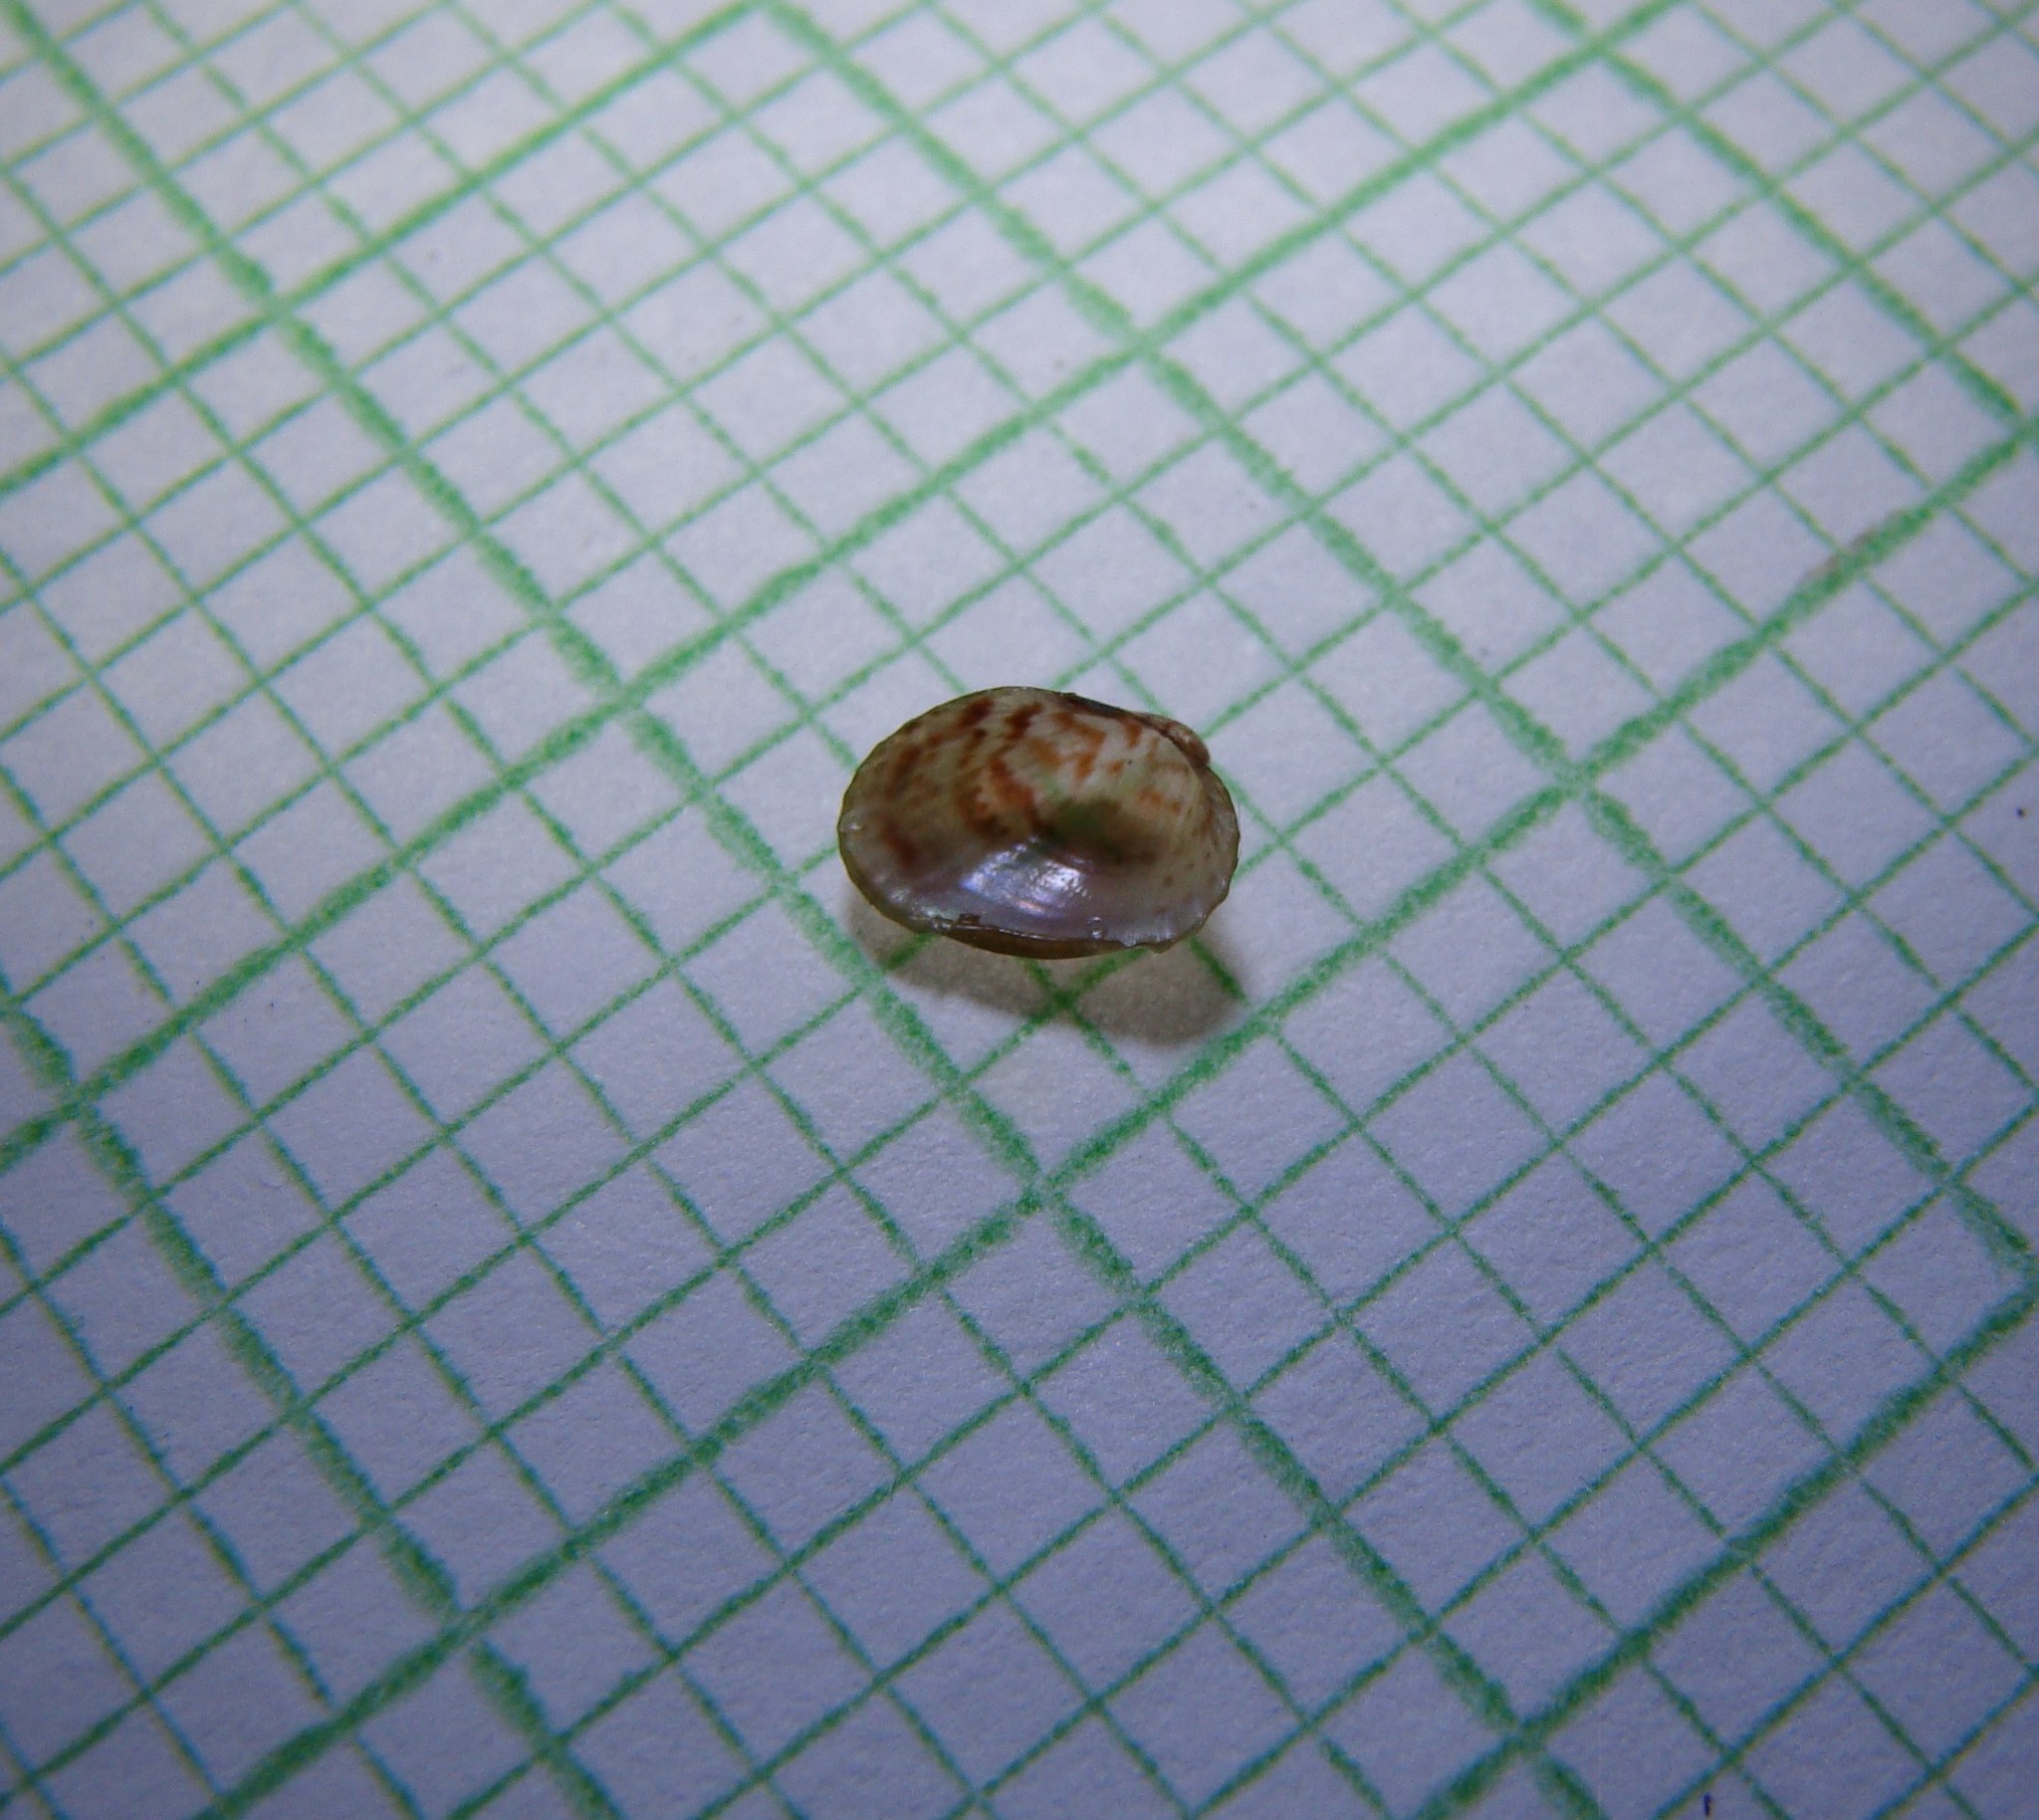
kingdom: Animalia
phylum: Mollusca
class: Bivalvia
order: Mytilida
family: Mytilidae
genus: Musculus
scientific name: Musculus impactus
